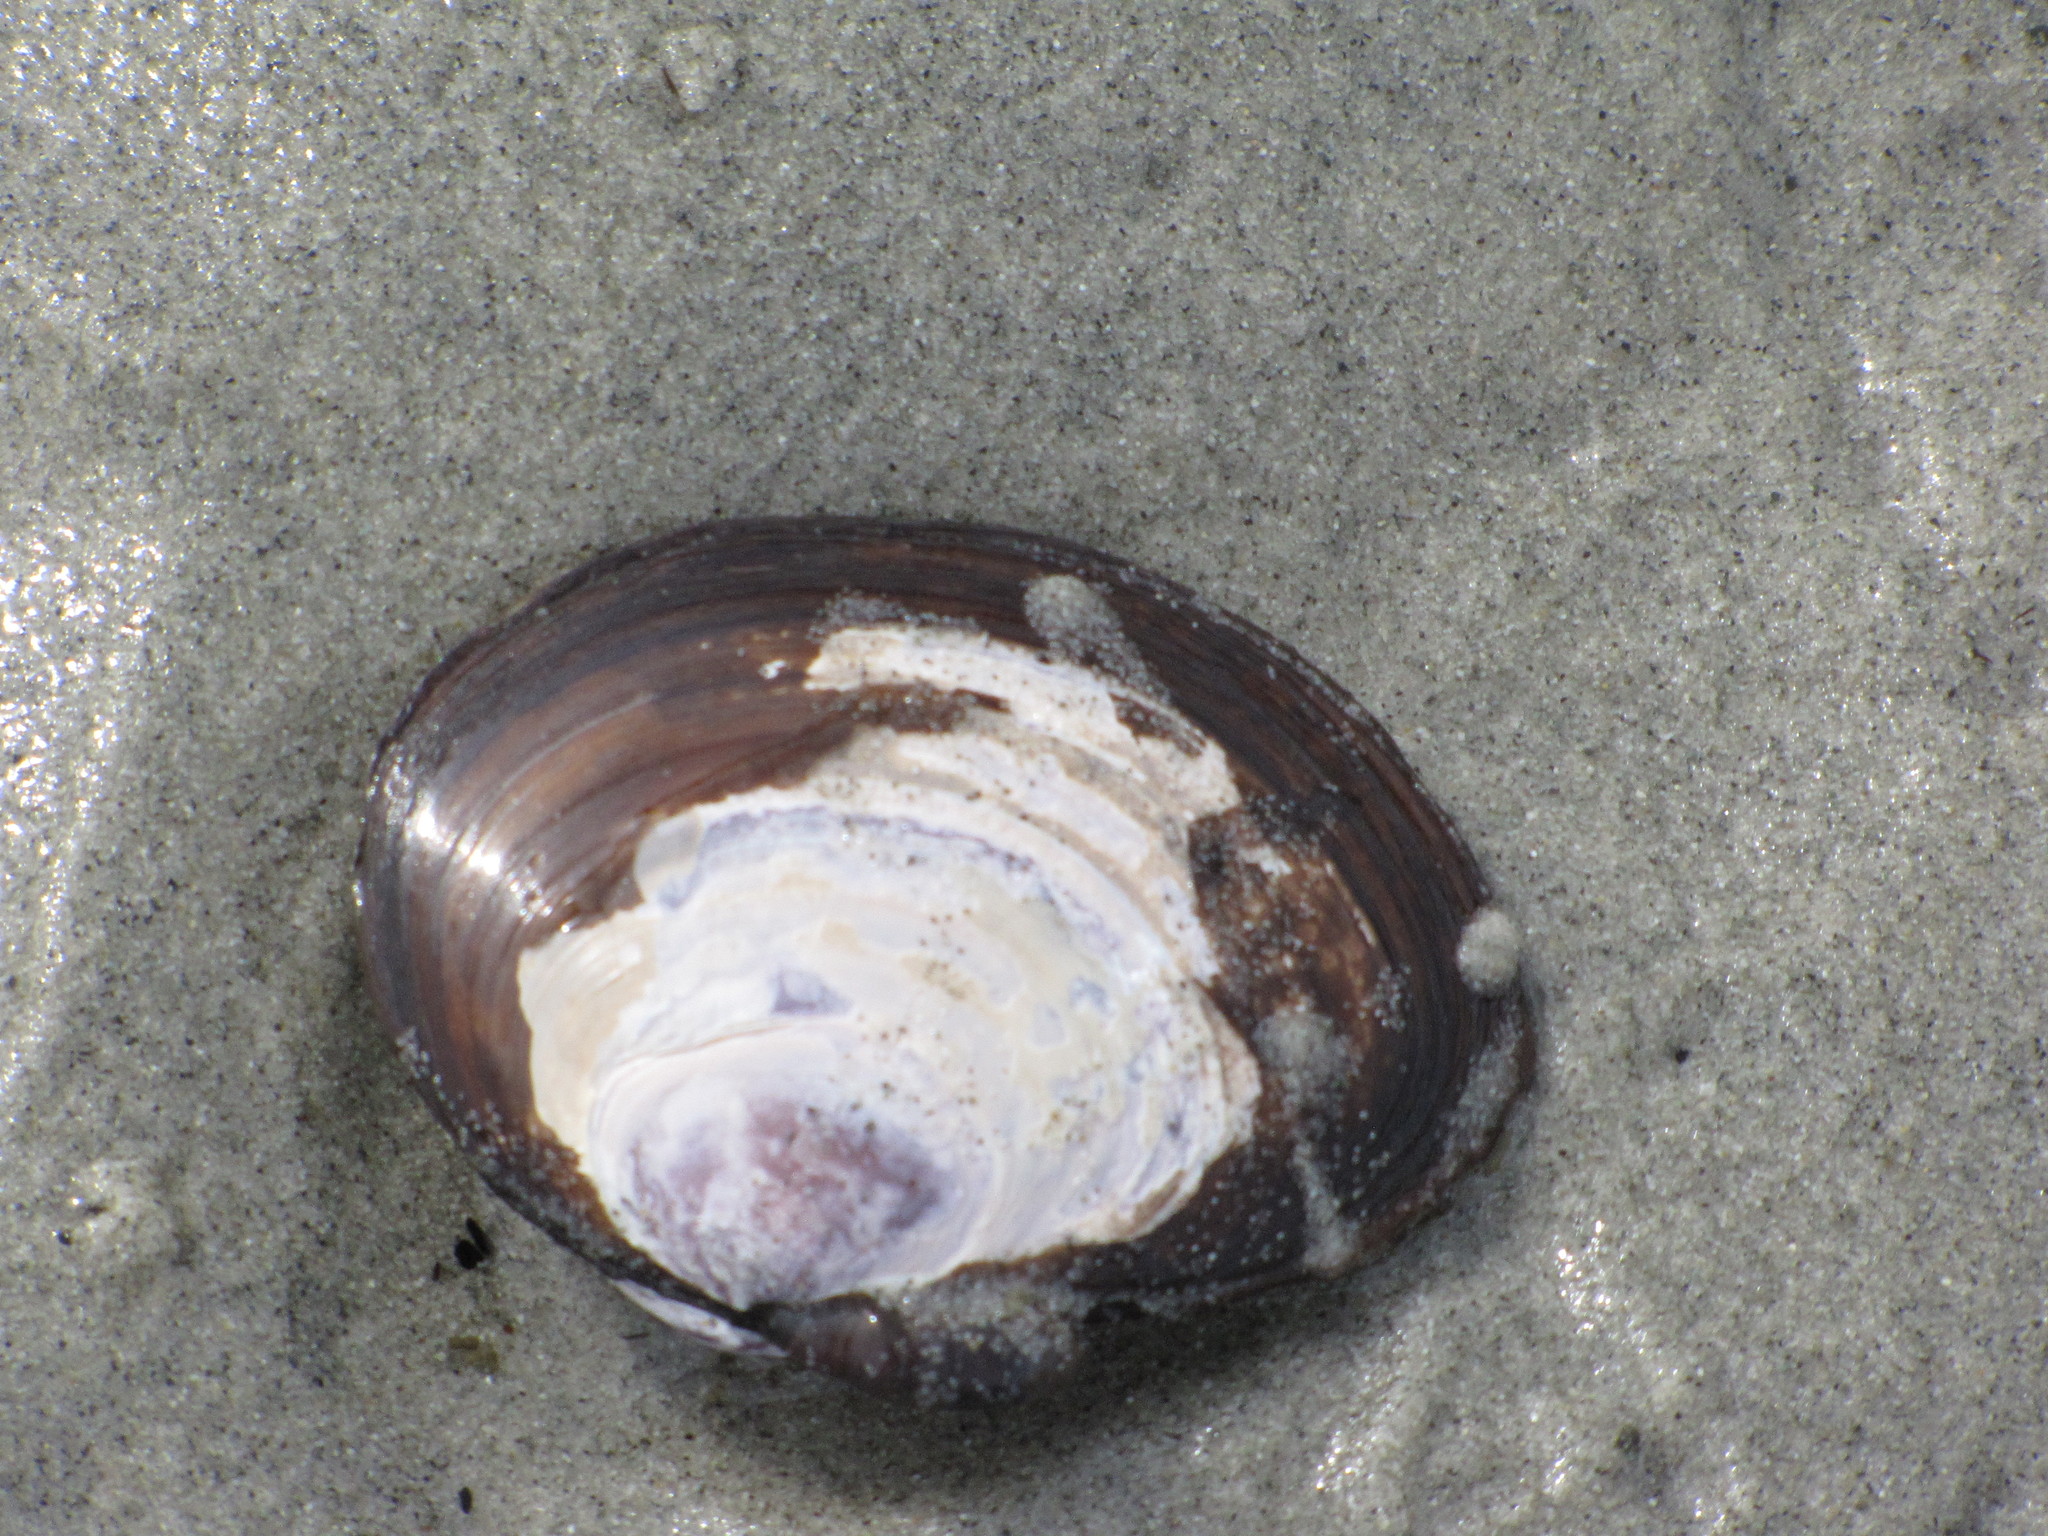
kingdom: Animalia
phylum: Mollusca
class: Bivalvia
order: Cardiida
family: Psammobiidae
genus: Nuttallia
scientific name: Nuttallia obscurata
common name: Purple mahogany-clam
